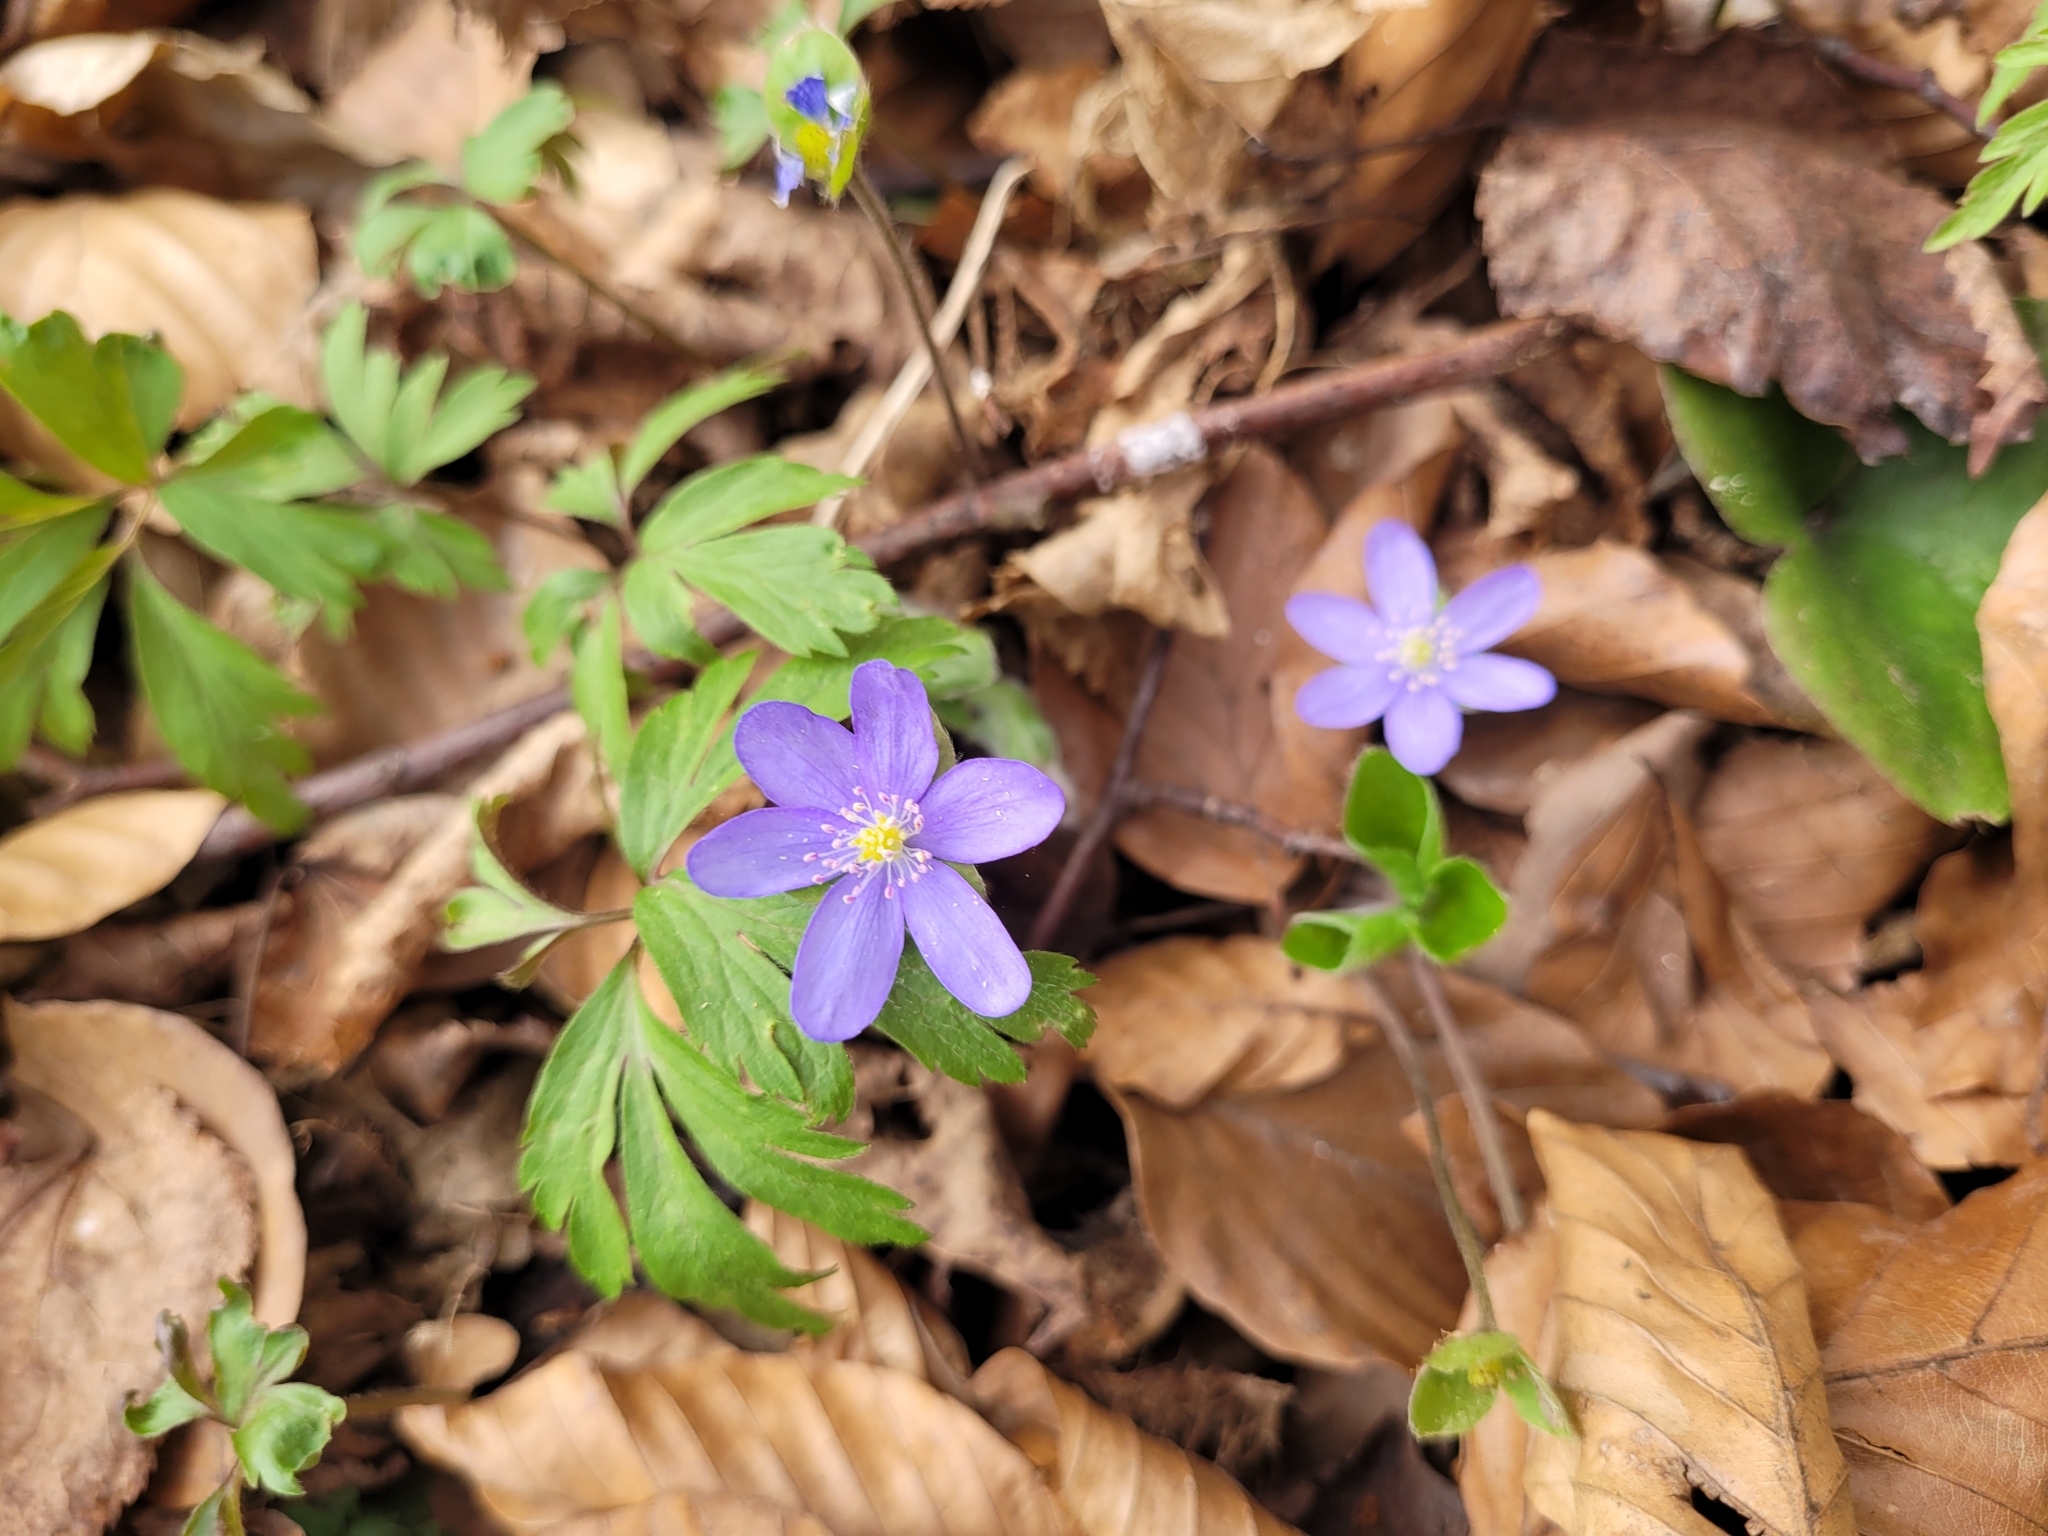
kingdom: Plantae
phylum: Tracheophyta
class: Magnoliopsida
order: Ranunculales
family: Ranunculaceae
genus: Hepatica
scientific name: Hepatica nobilis
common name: Liverleaf
